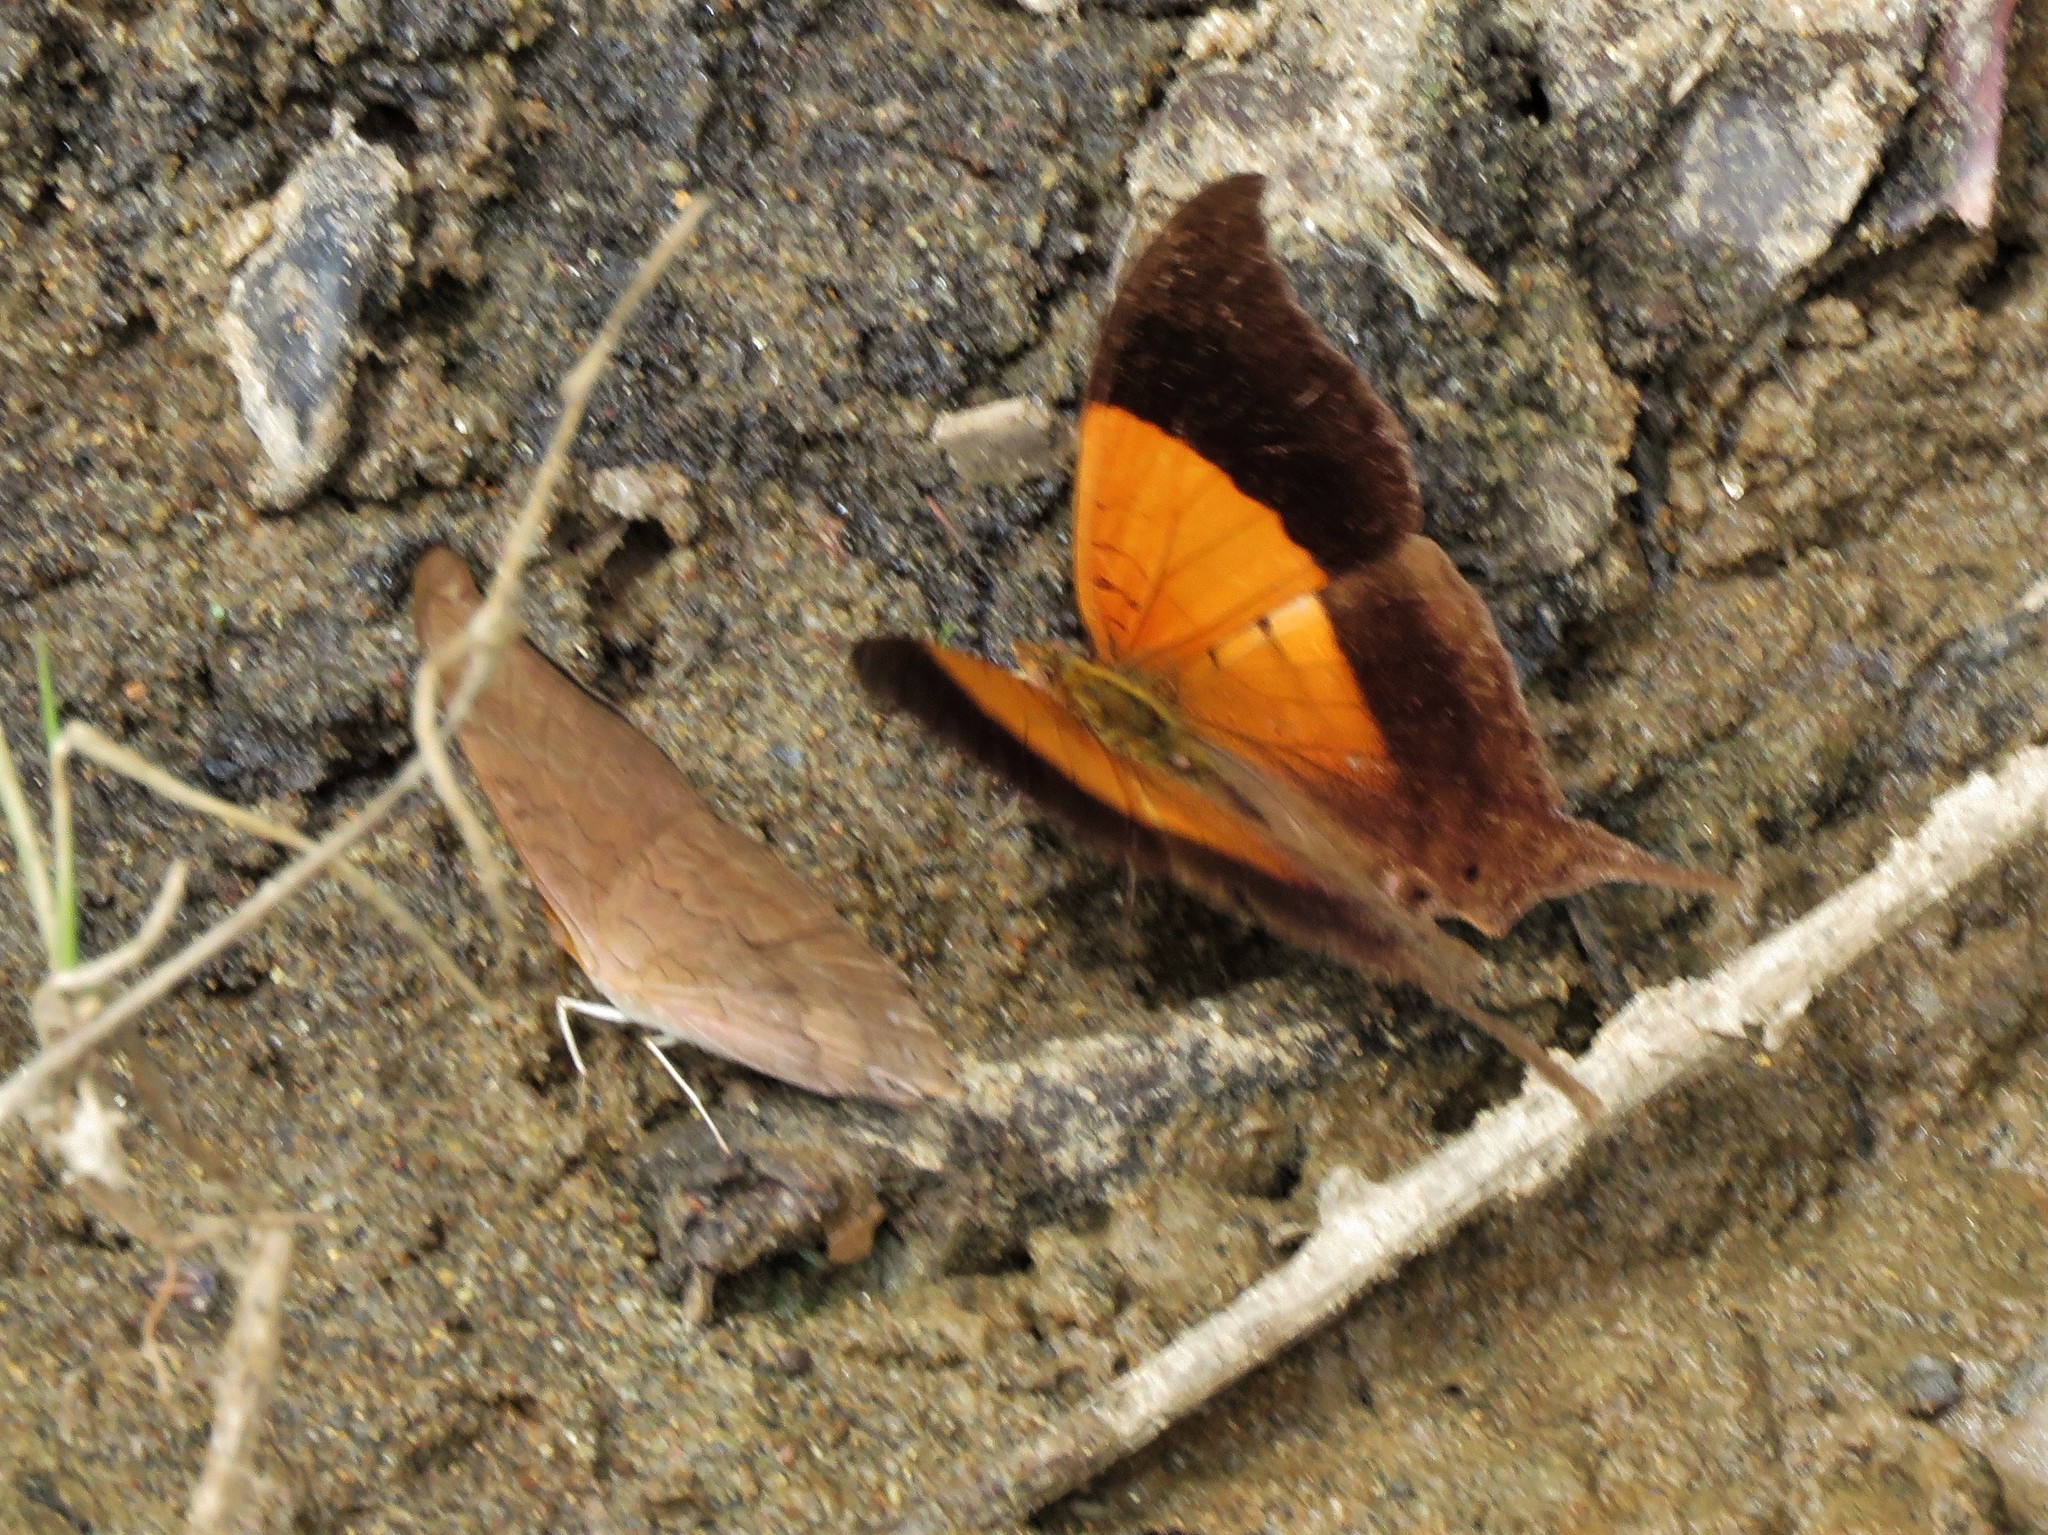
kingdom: Animalia
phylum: Arthropoda
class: Insecta
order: Lepidoptera
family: Nymphalidae
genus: Marpesia
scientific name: Marpesia furcula
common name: Sunset daggerwing
